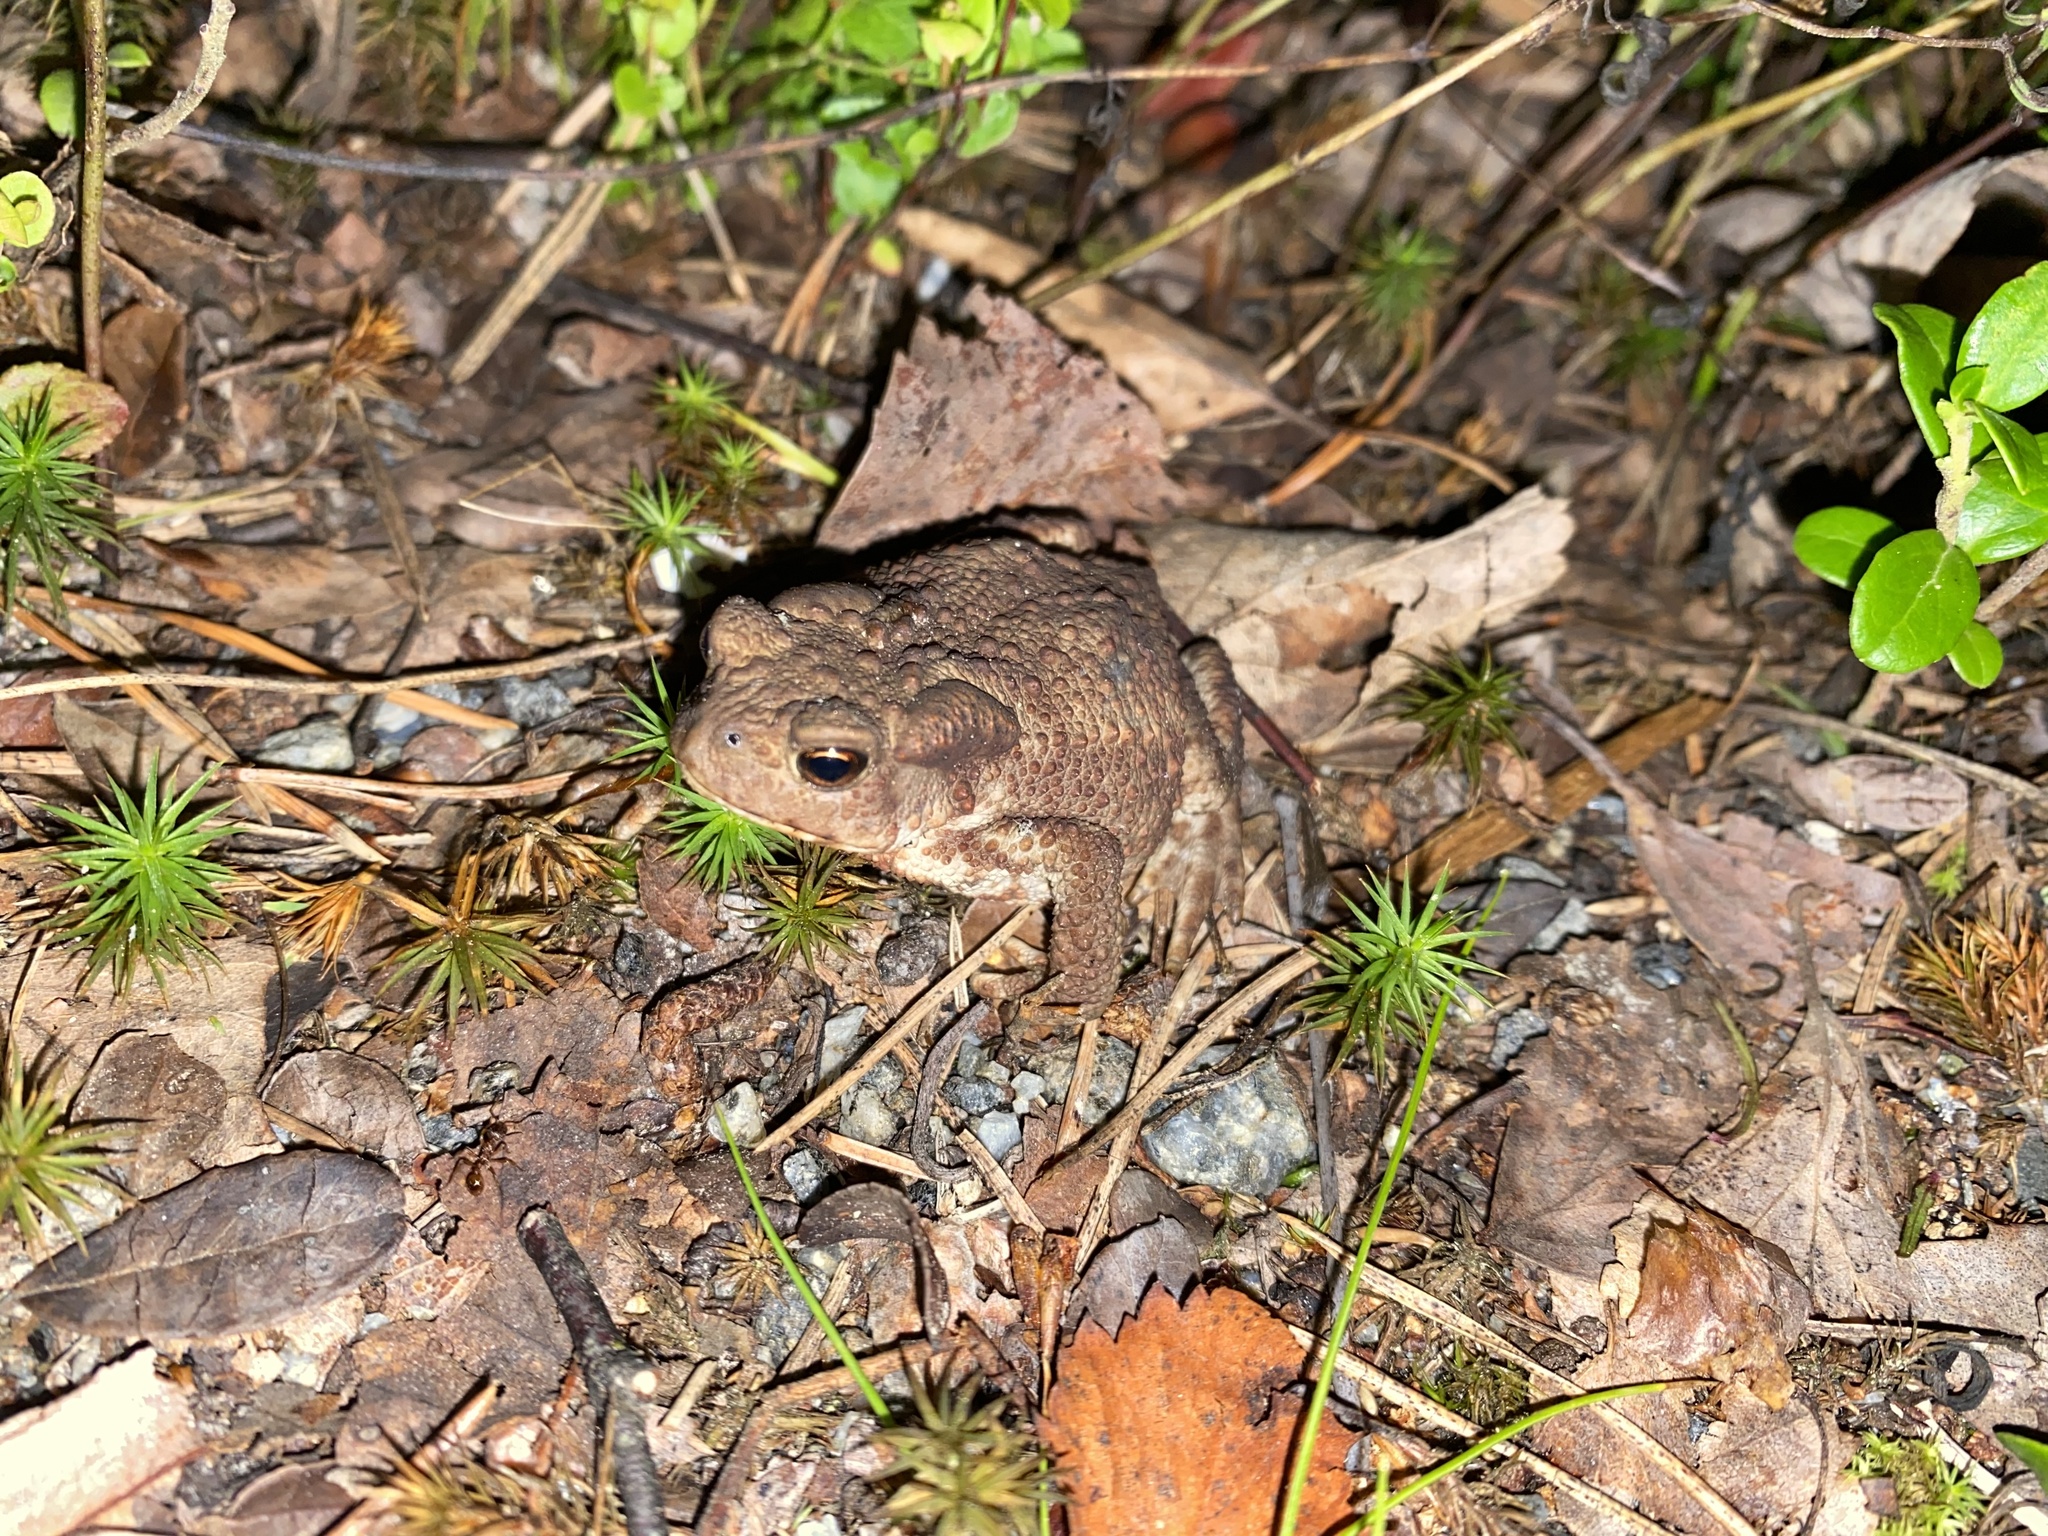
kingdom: Animalia
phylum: Chordata
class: Amphibia
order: Anura
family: Bufonidae
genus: Bufo
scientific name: Bufo bufo
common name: Common toad
